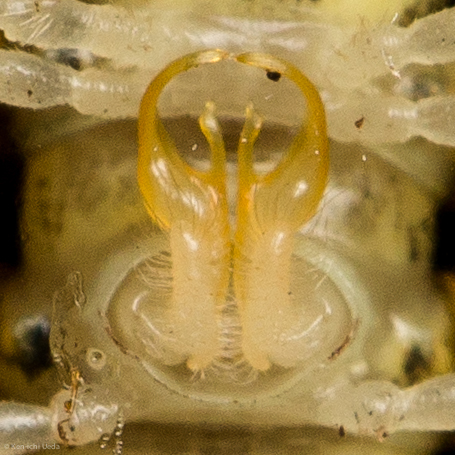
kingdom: Animalia
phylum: Arthropoda
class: Diplopoda
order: Polydesmida
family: Xystodesmidae
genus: Sigmocheir
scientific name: Sigmocheir furcata
